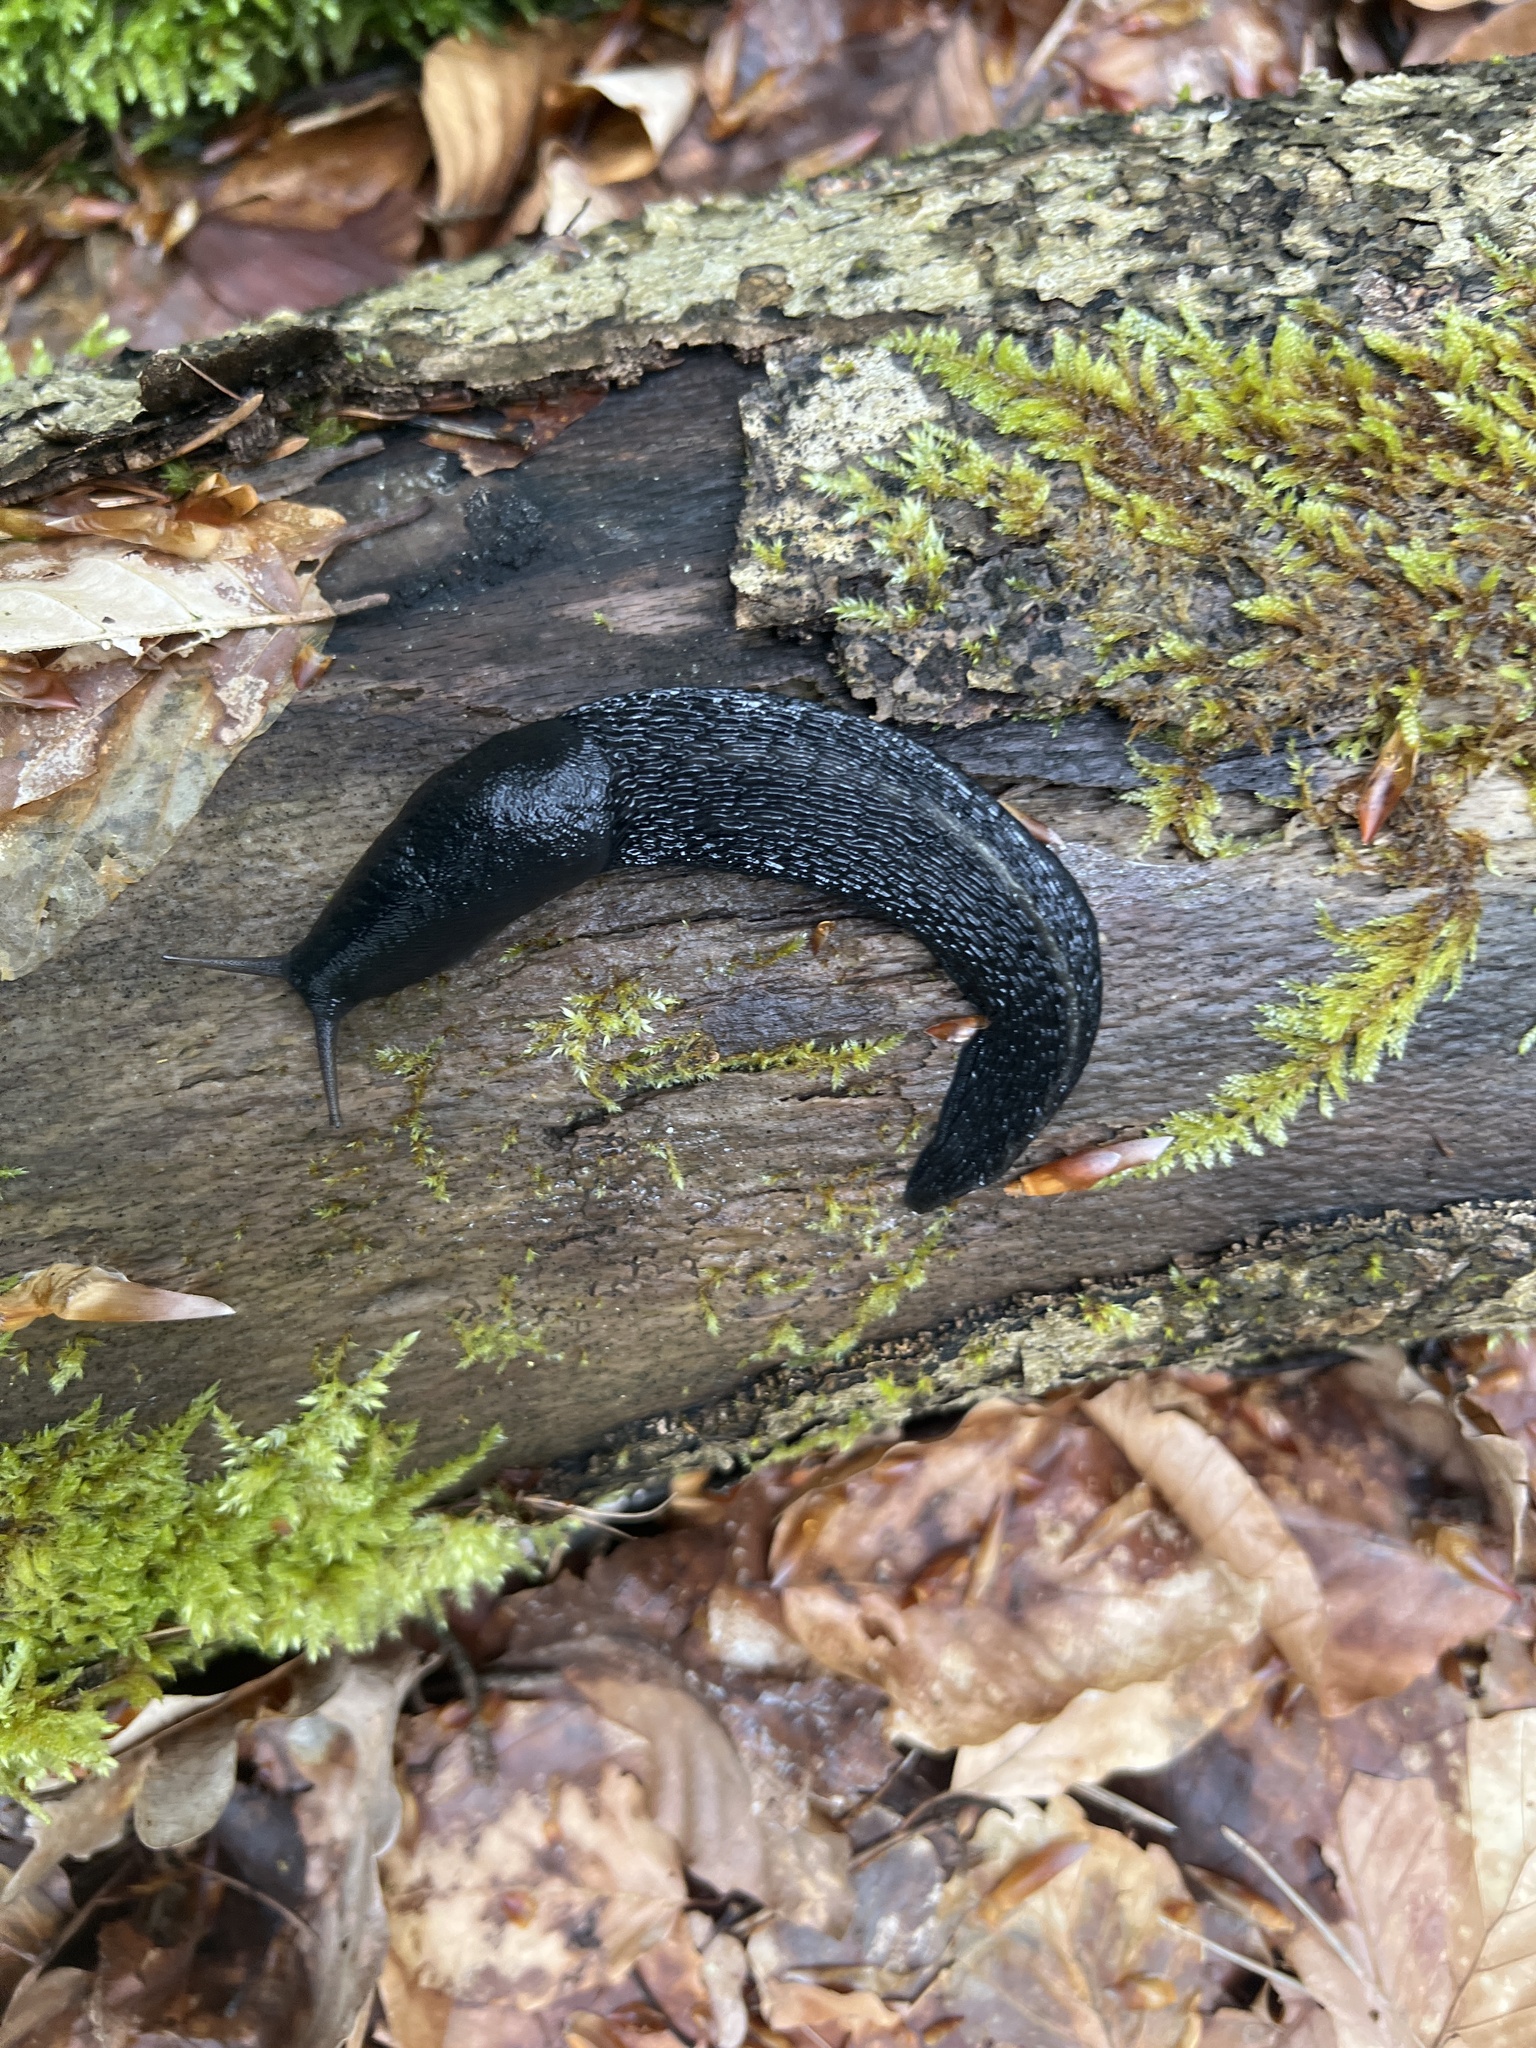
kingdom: Animalia
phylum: Mollusca
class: Gastropoda
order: Stylommatophora
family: Limacidae
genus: Limax
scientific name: Limax cinereoniger
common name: Ash-black slug
